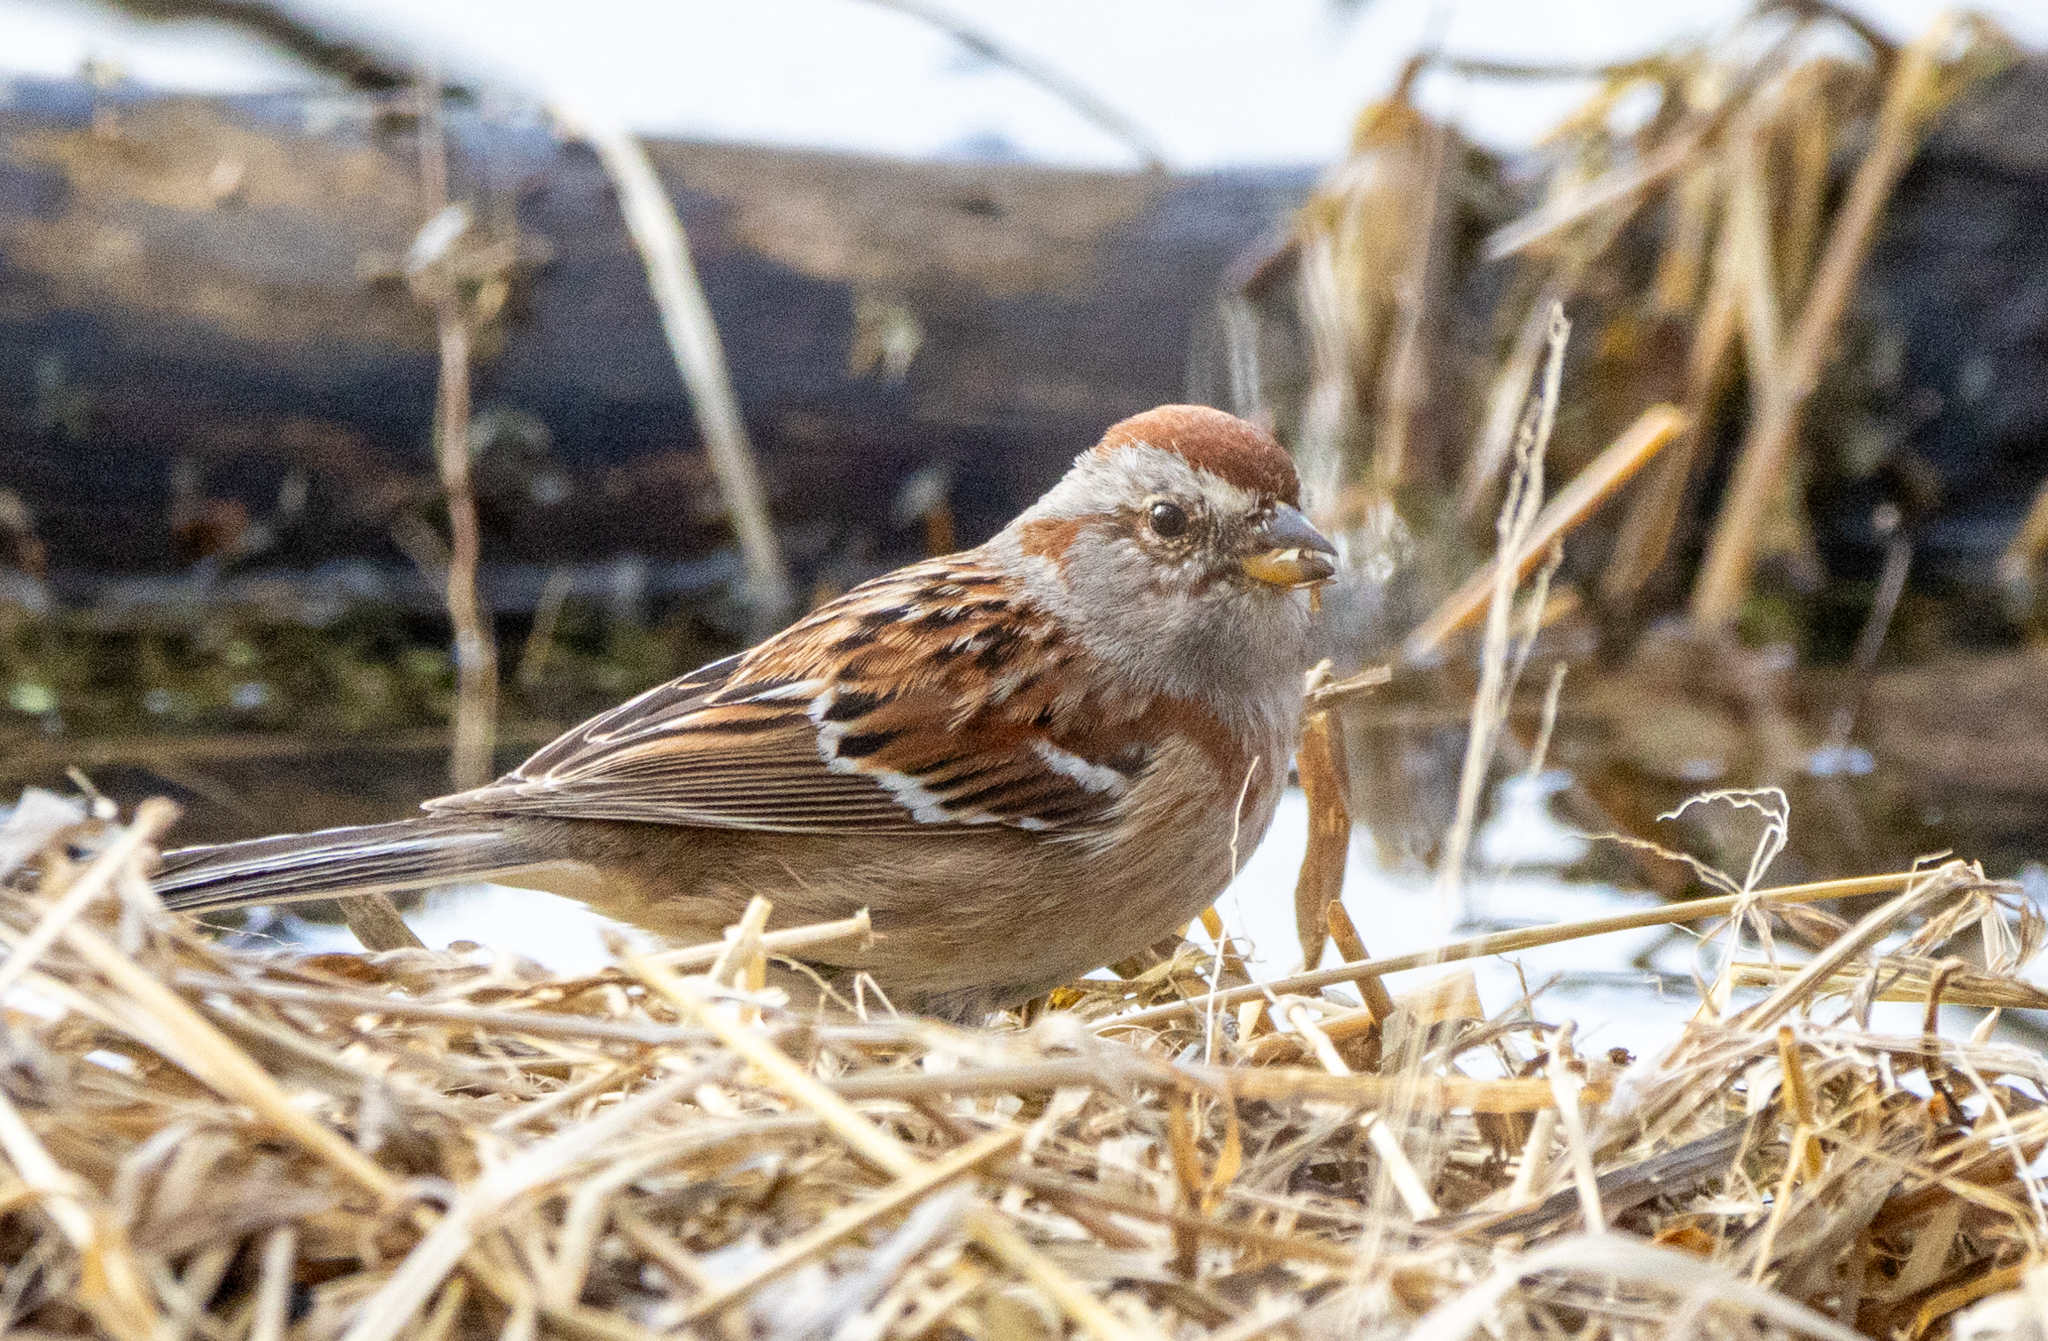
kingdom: Animalia
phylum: Chordata
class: Aves
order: Passeriformes
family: Passerellidae
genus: Spizelloides
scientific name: Spizelloides arborea
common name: American tree sparrow
